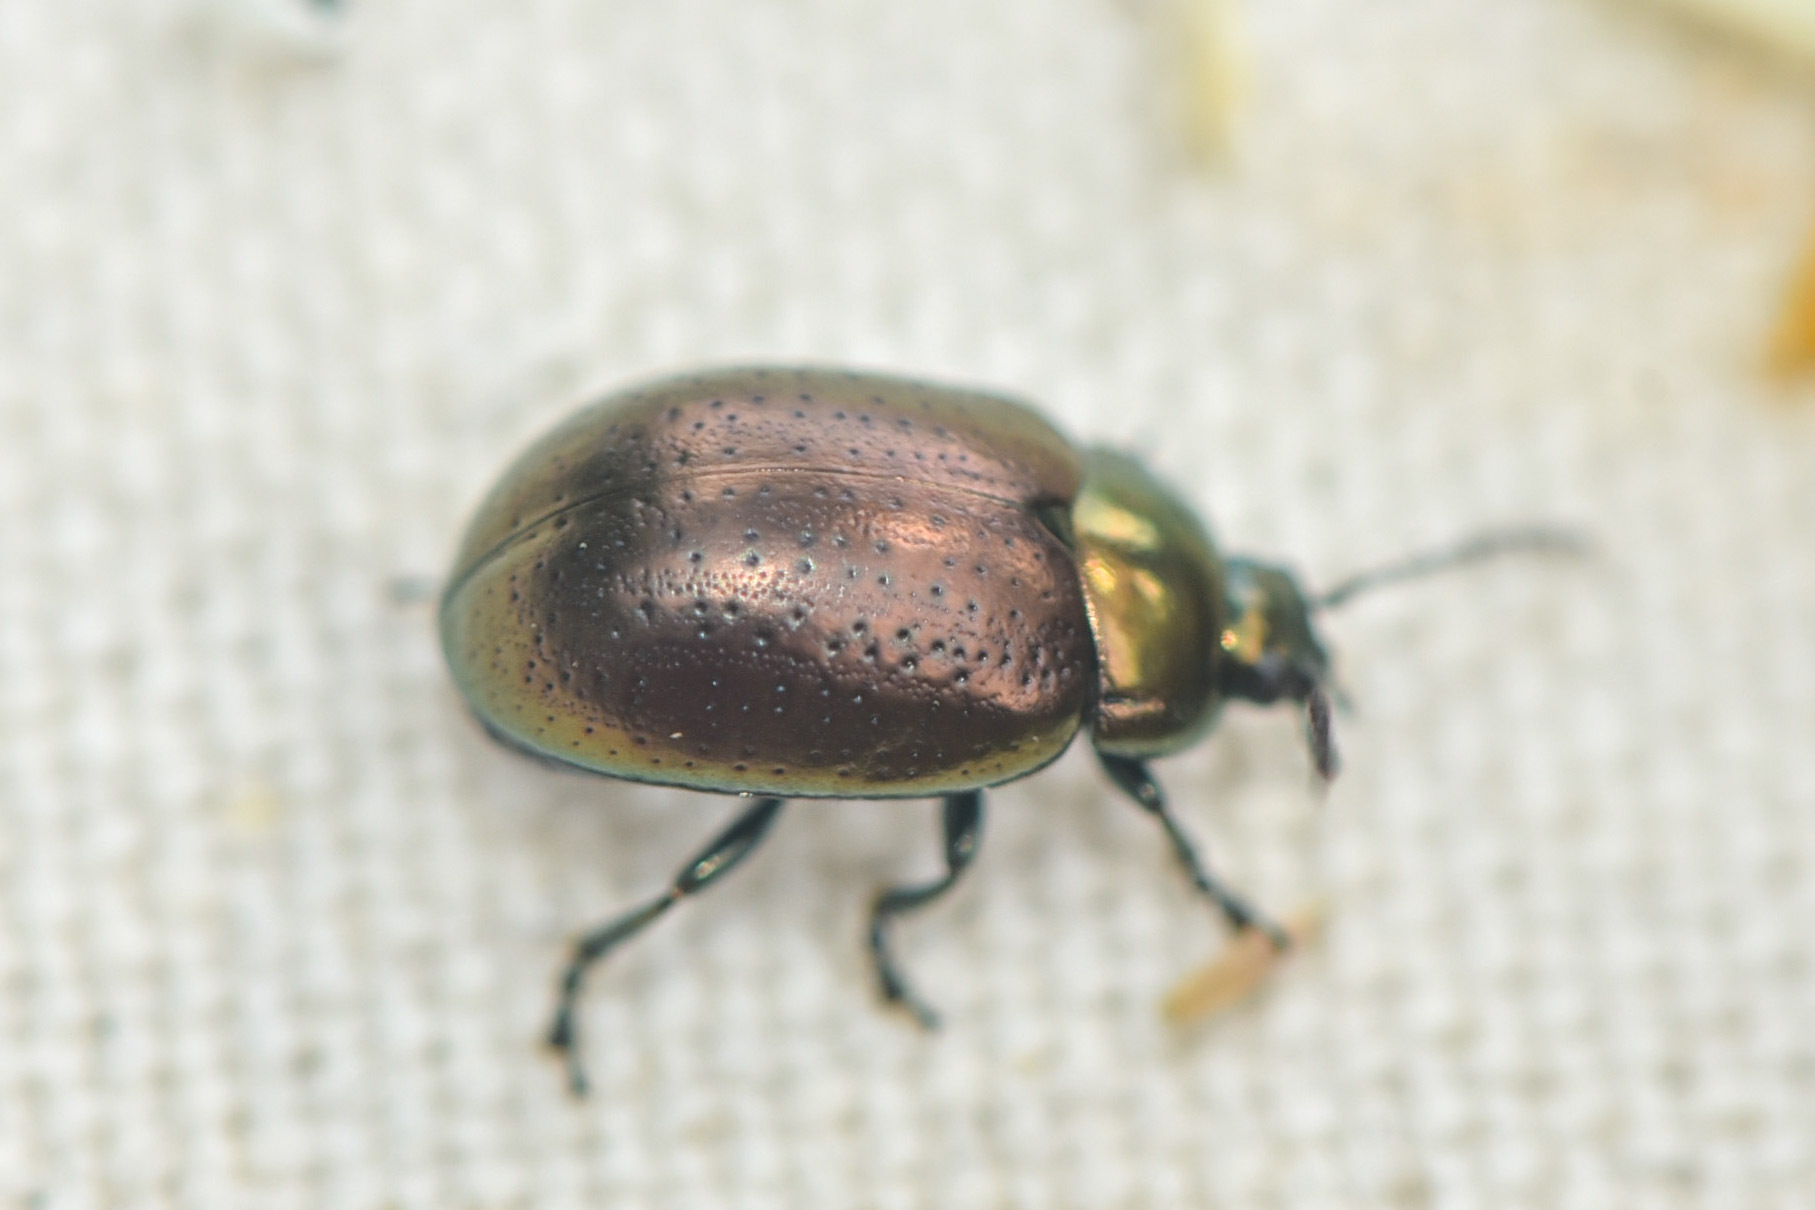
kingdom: Animalia
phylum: Arthropoda
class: Insecta
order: Coleoptera
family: Chrysomelidae
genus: Chrysolina
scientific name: Chrysolina hyperici
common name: St. johnswort beetle
